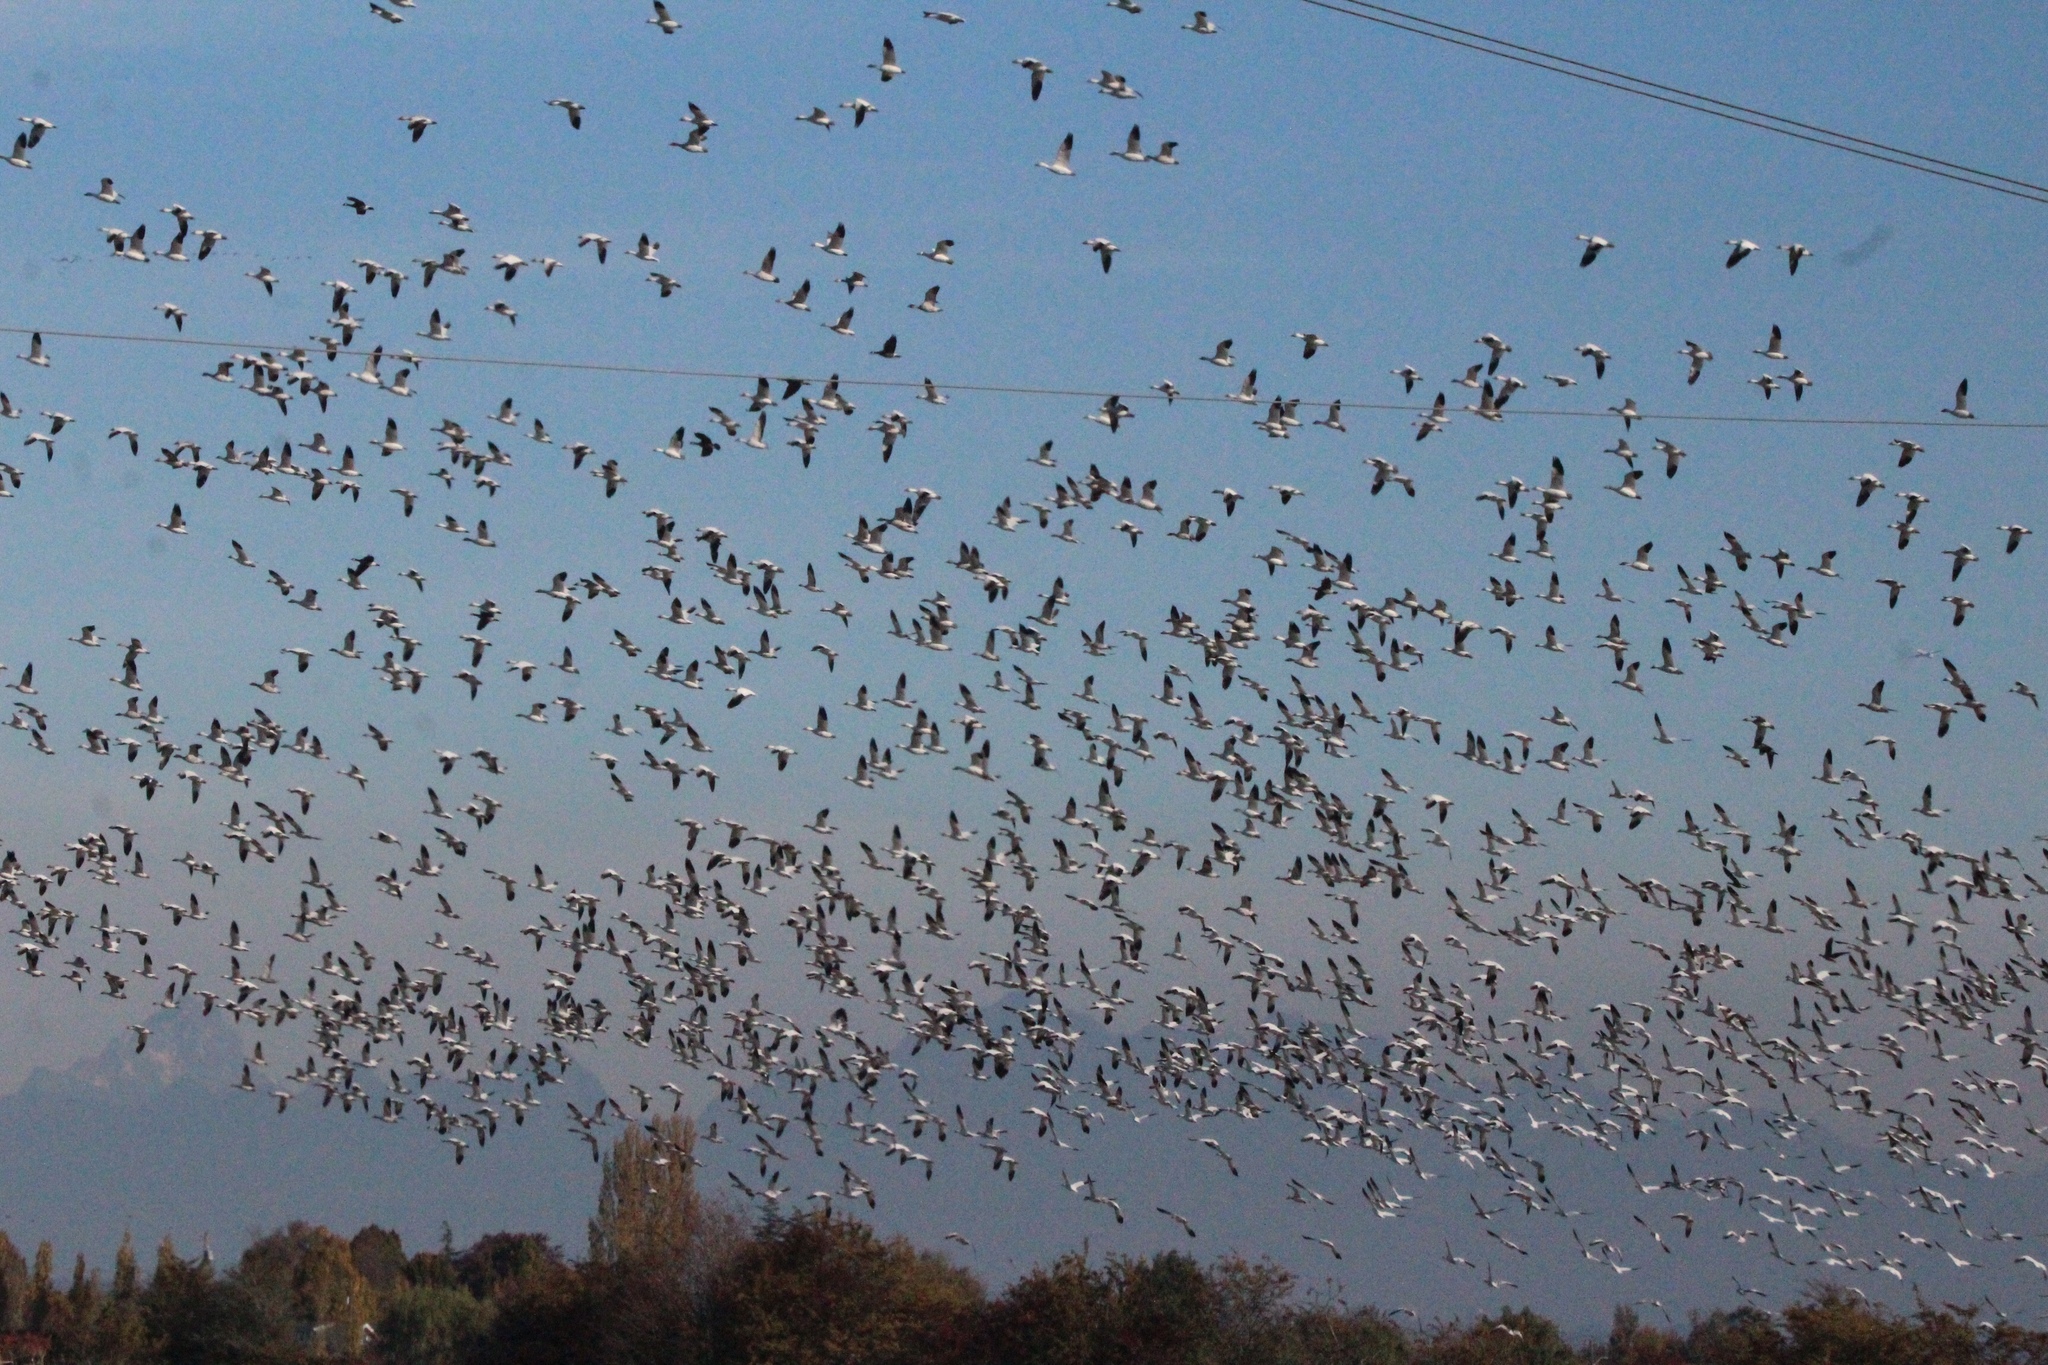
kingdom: Animalia
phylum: Chordata
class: Aves
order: Anseriformes
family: Anatidae
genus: Anser
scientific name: Anser caerulescens
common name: Snow goose
